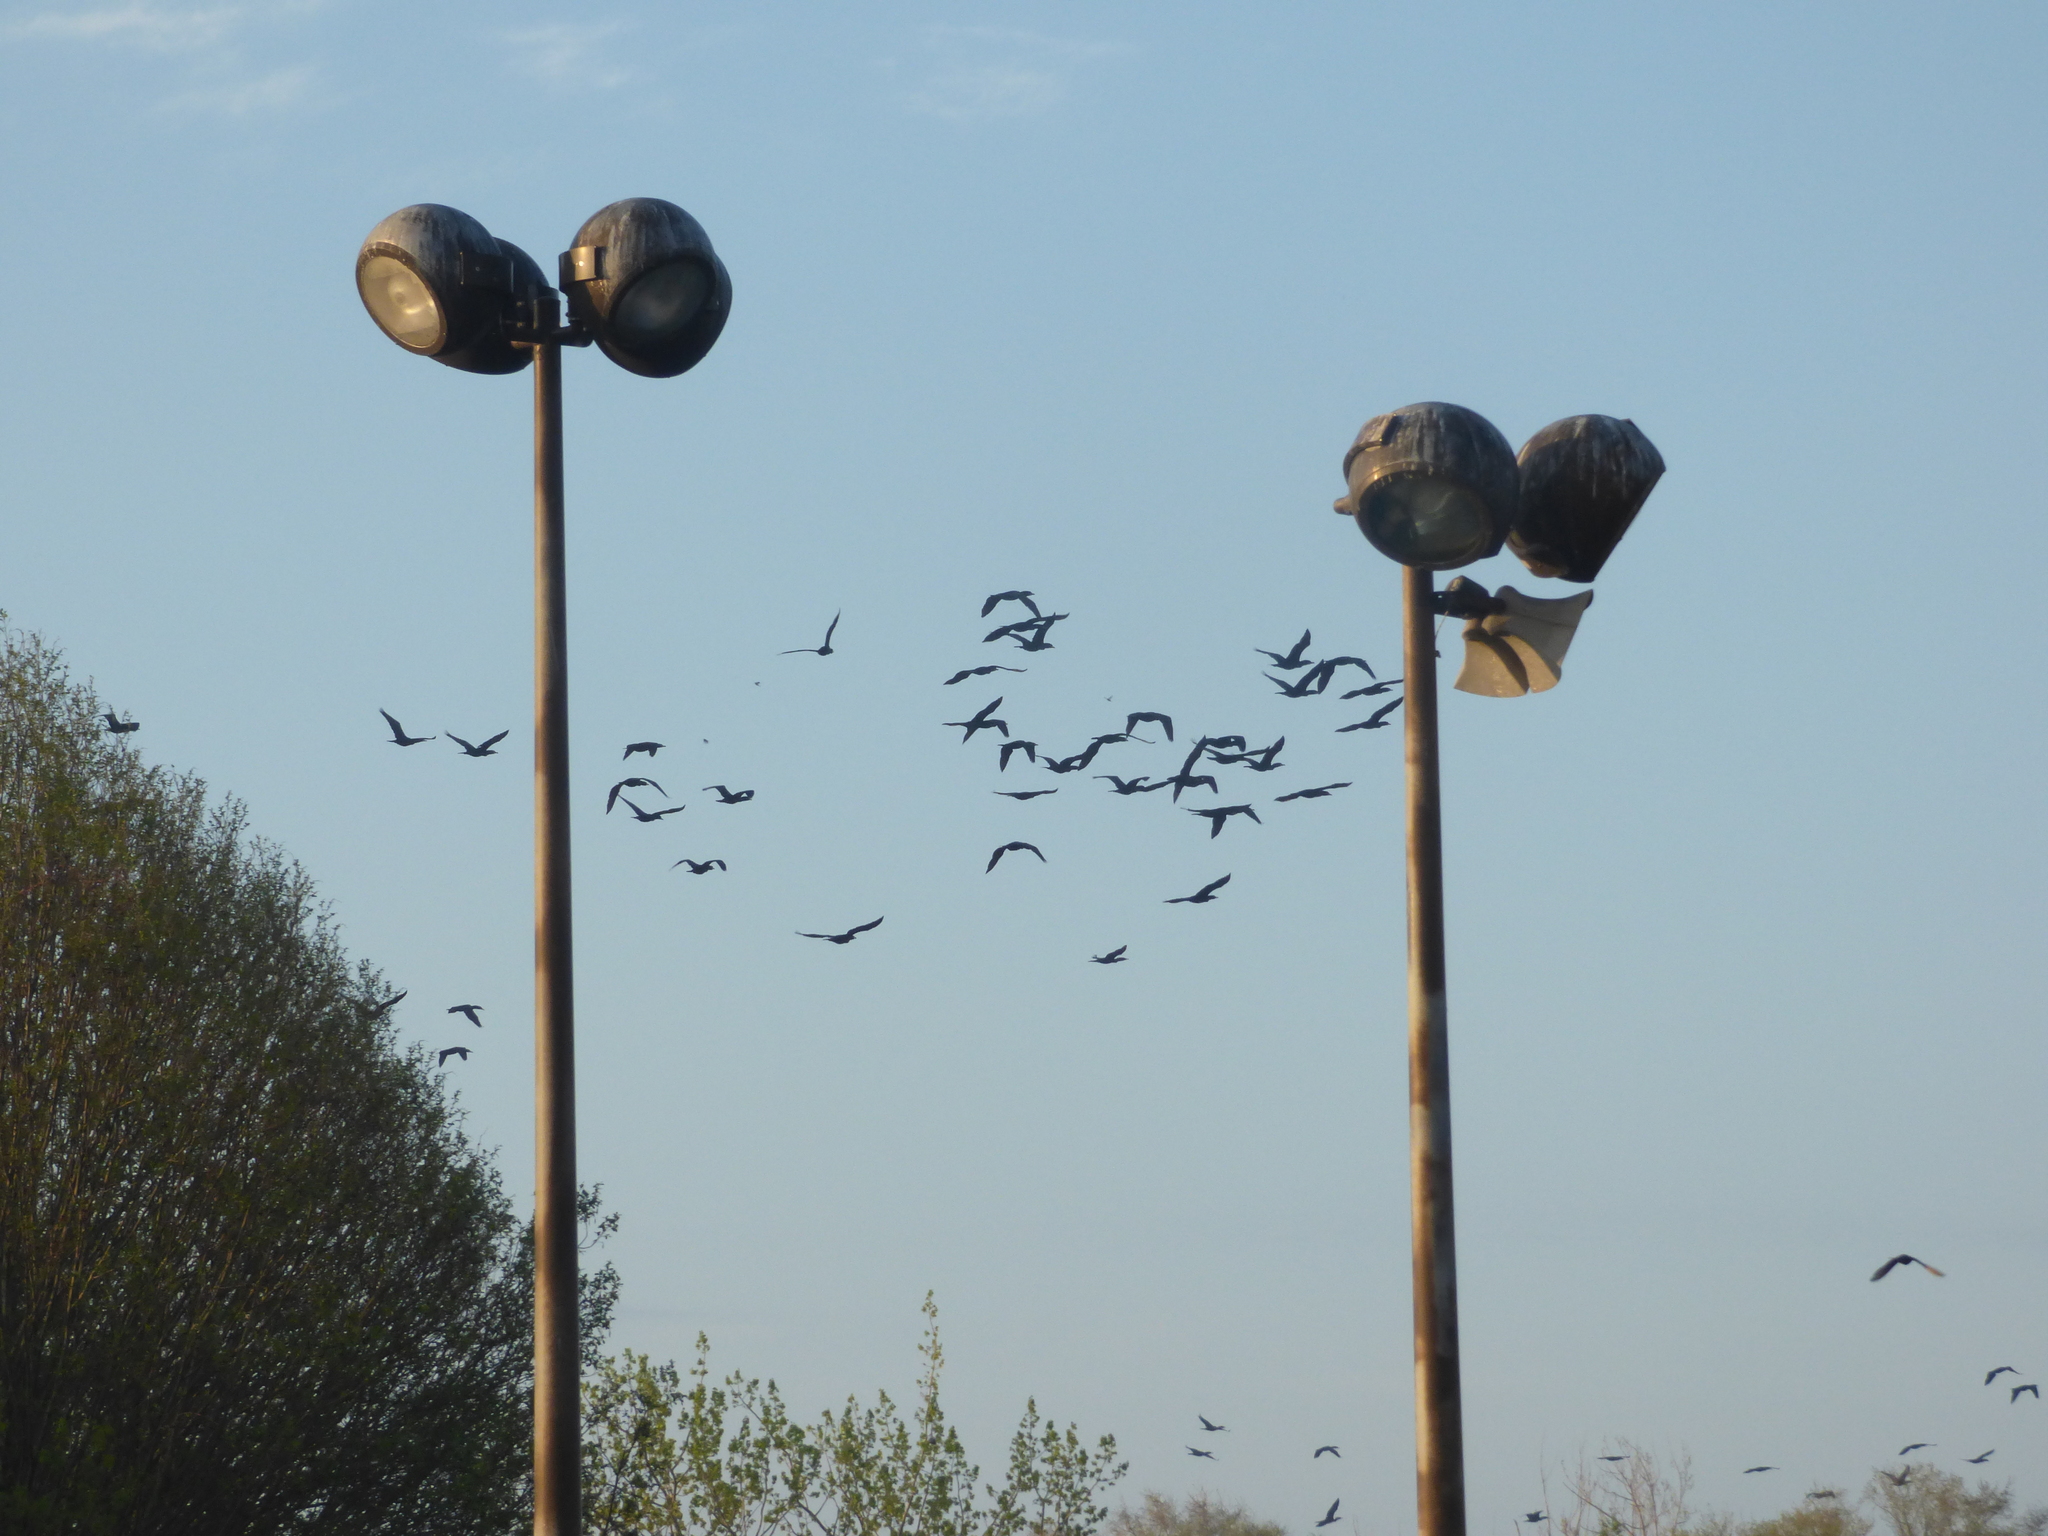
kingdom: Animalia
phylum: Chordata
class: Aves
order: Suliformes
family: Phalacrocoracidae
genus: Phalacrocorax
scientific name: Phalacrocorax auritus
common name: Double-crested cormorant
